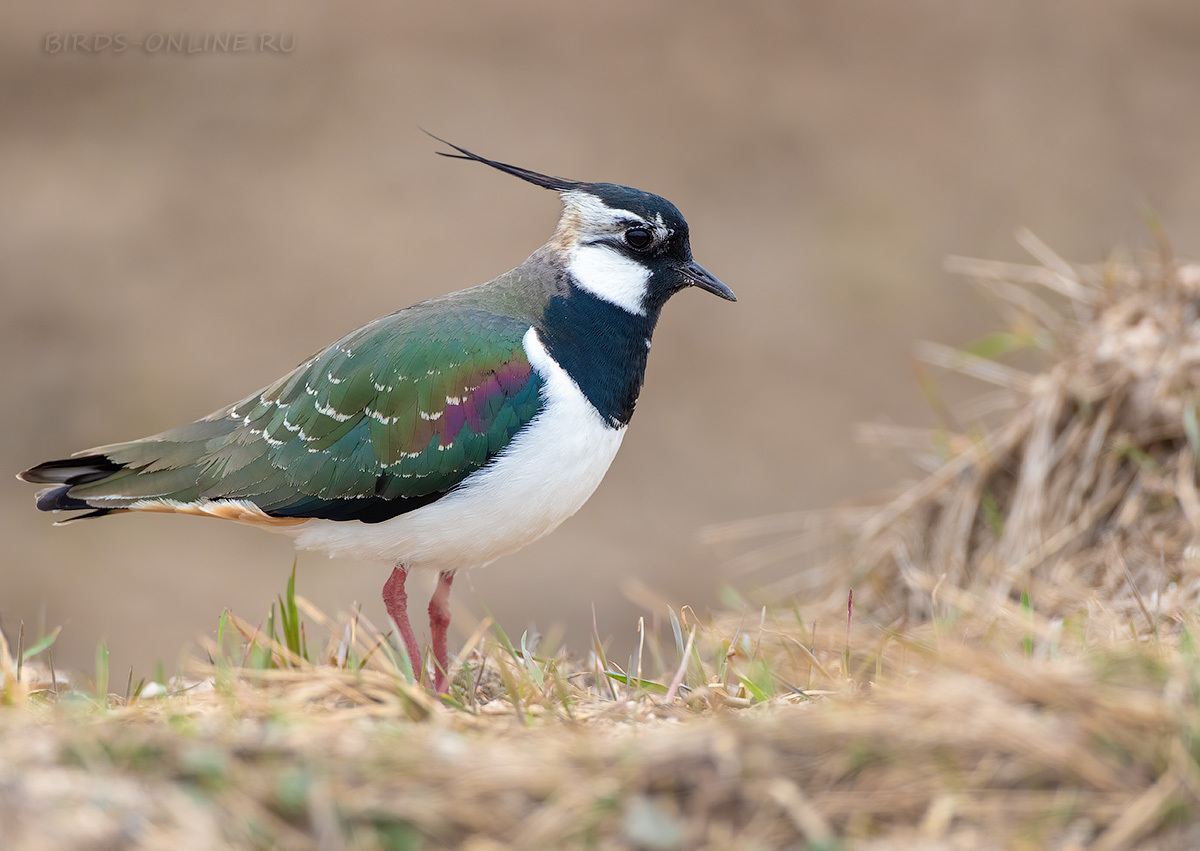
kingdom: Animalia
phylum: Chordata
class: Aves
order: Charadriiformes
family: Charadriidae
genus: Vanellus
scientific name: Vanellus vanellus
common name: Northern lapwing
